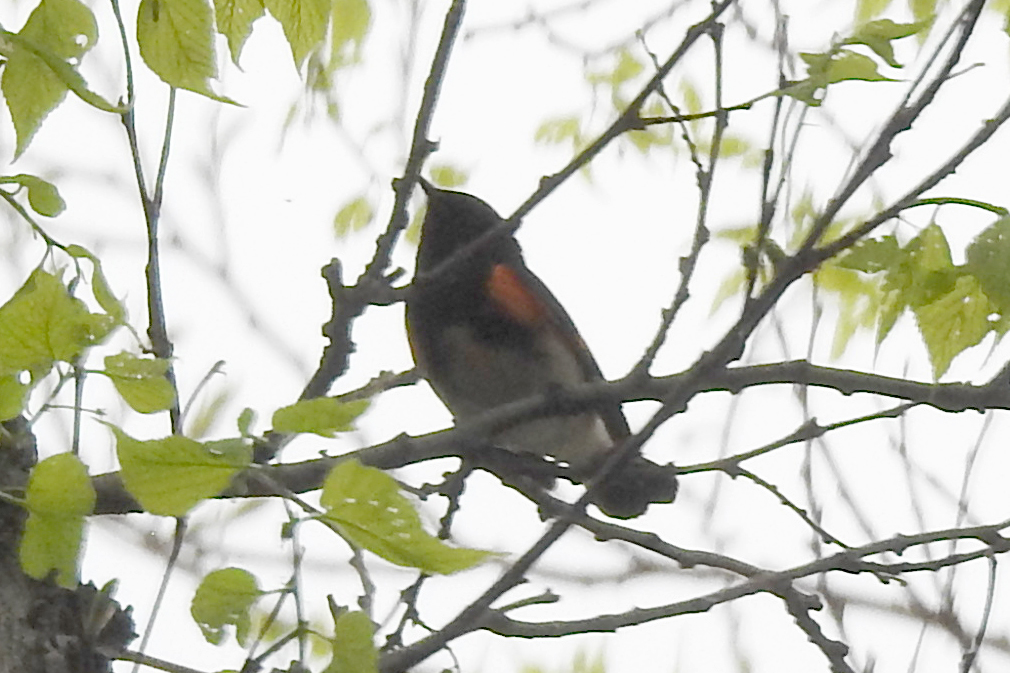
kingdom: Animalia
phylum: Chordata
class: Aves
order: Passeriformes
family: Parulidae
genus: Setophaga
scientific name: Setophaga ruticilla
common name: American redstart
